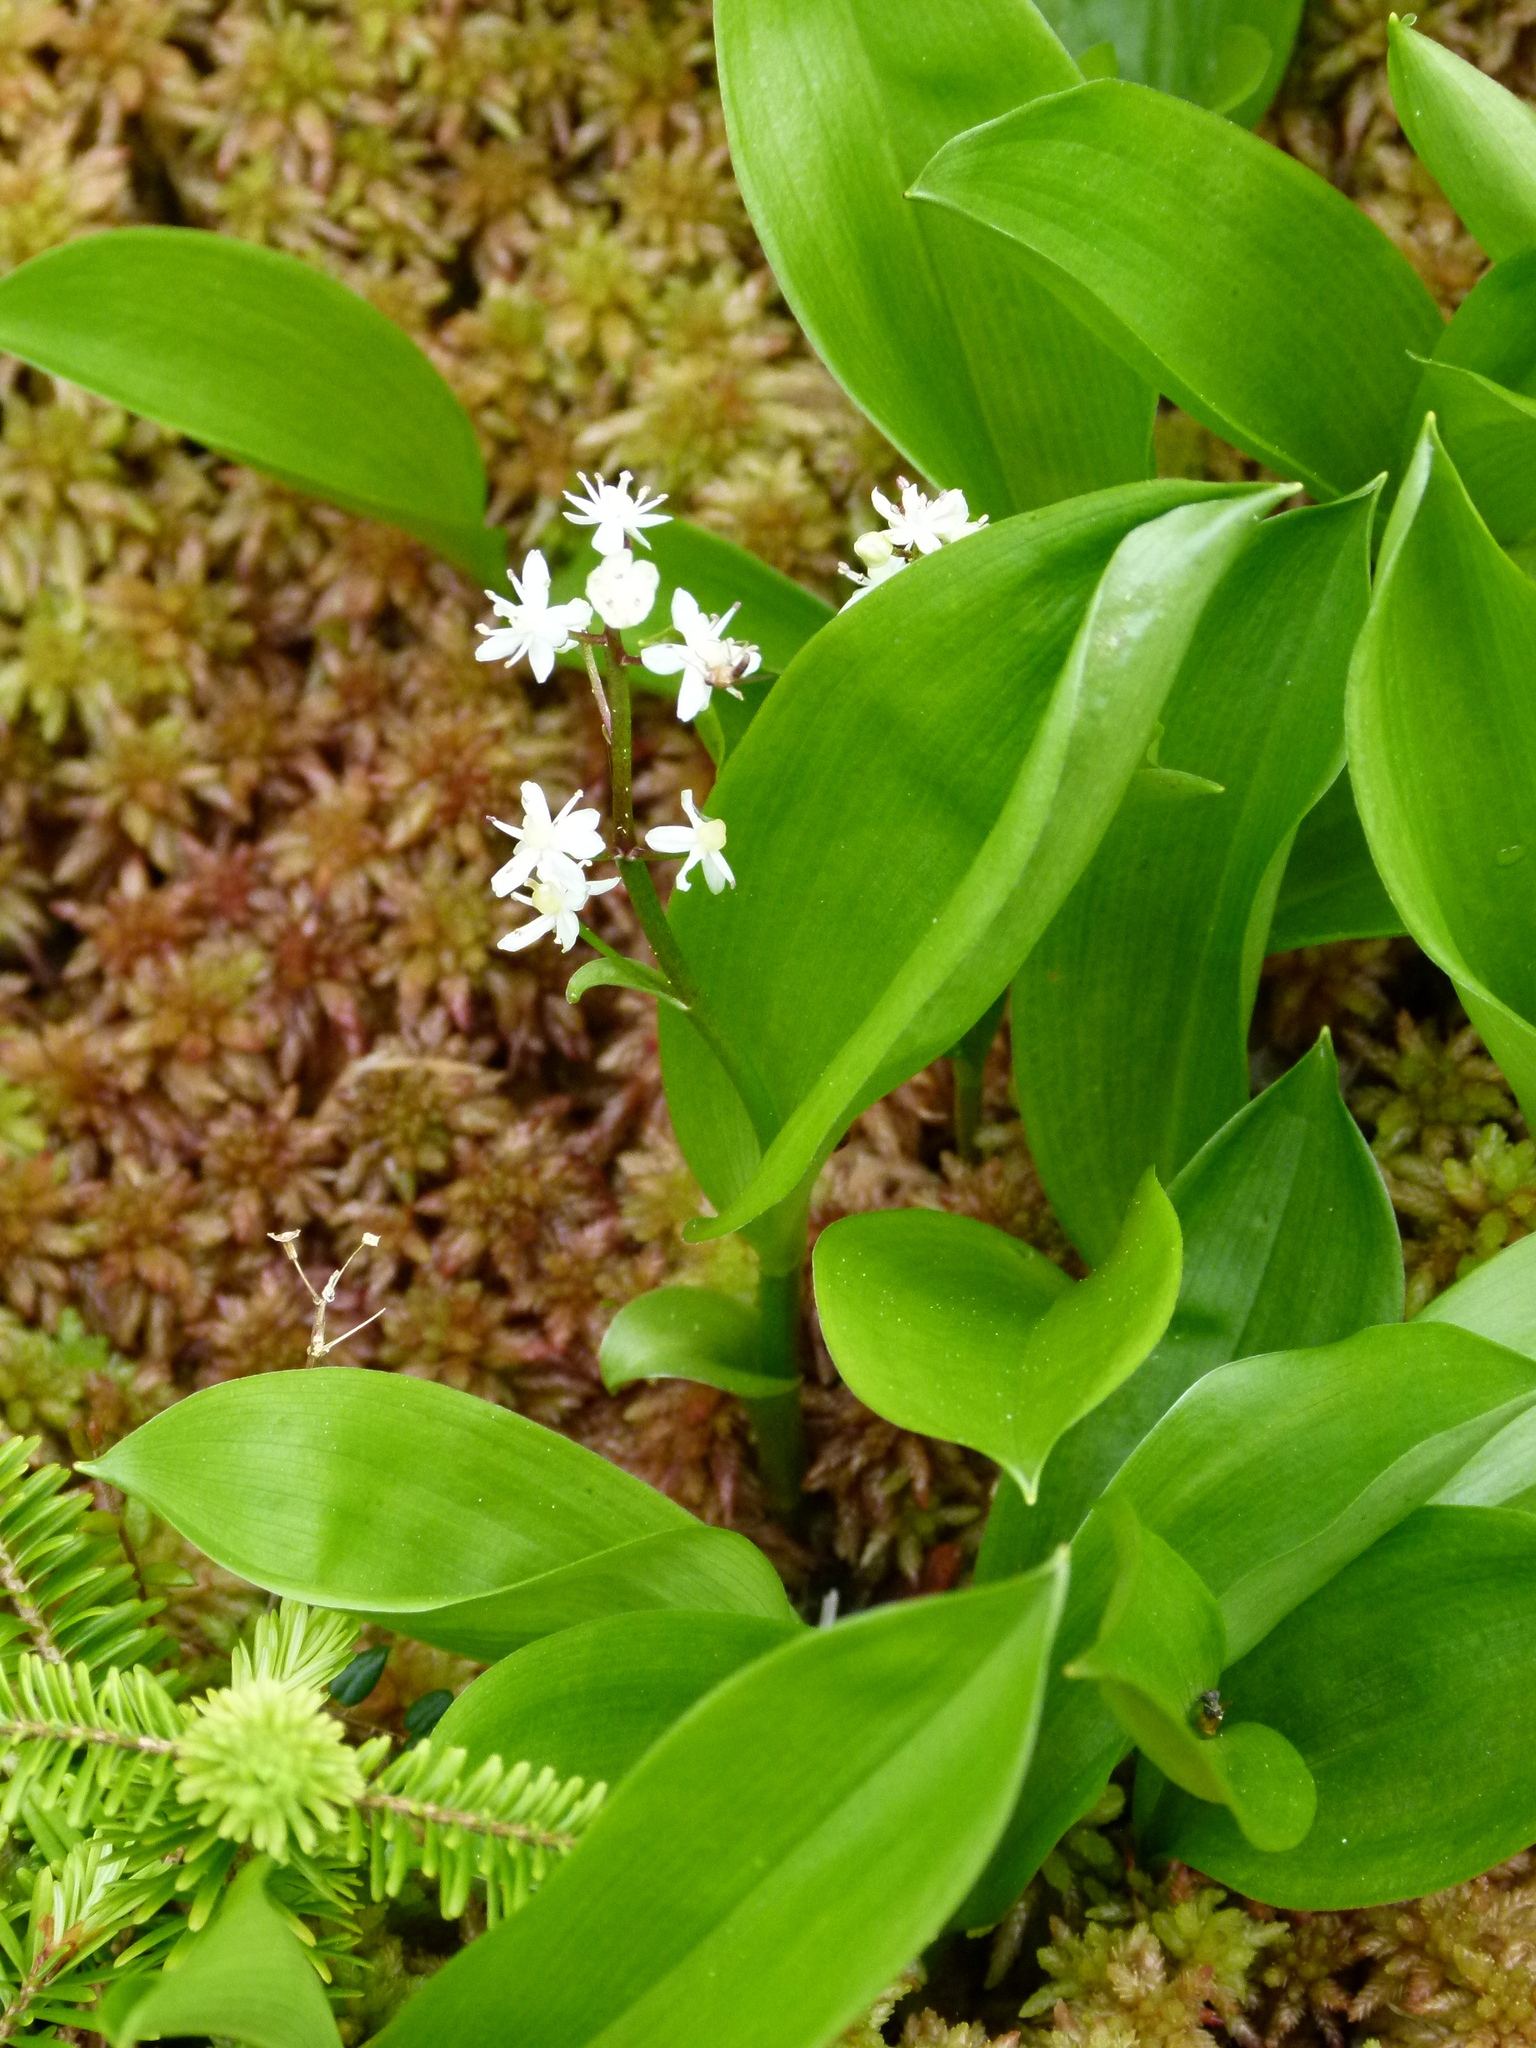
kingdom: Plantae
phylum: Tracheophyta
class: Liliopsida
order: Asparagales
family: Asparagaceae
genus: Maianthemum
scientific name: Maianthemum trifolium
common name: Swamp false solomon's seal
